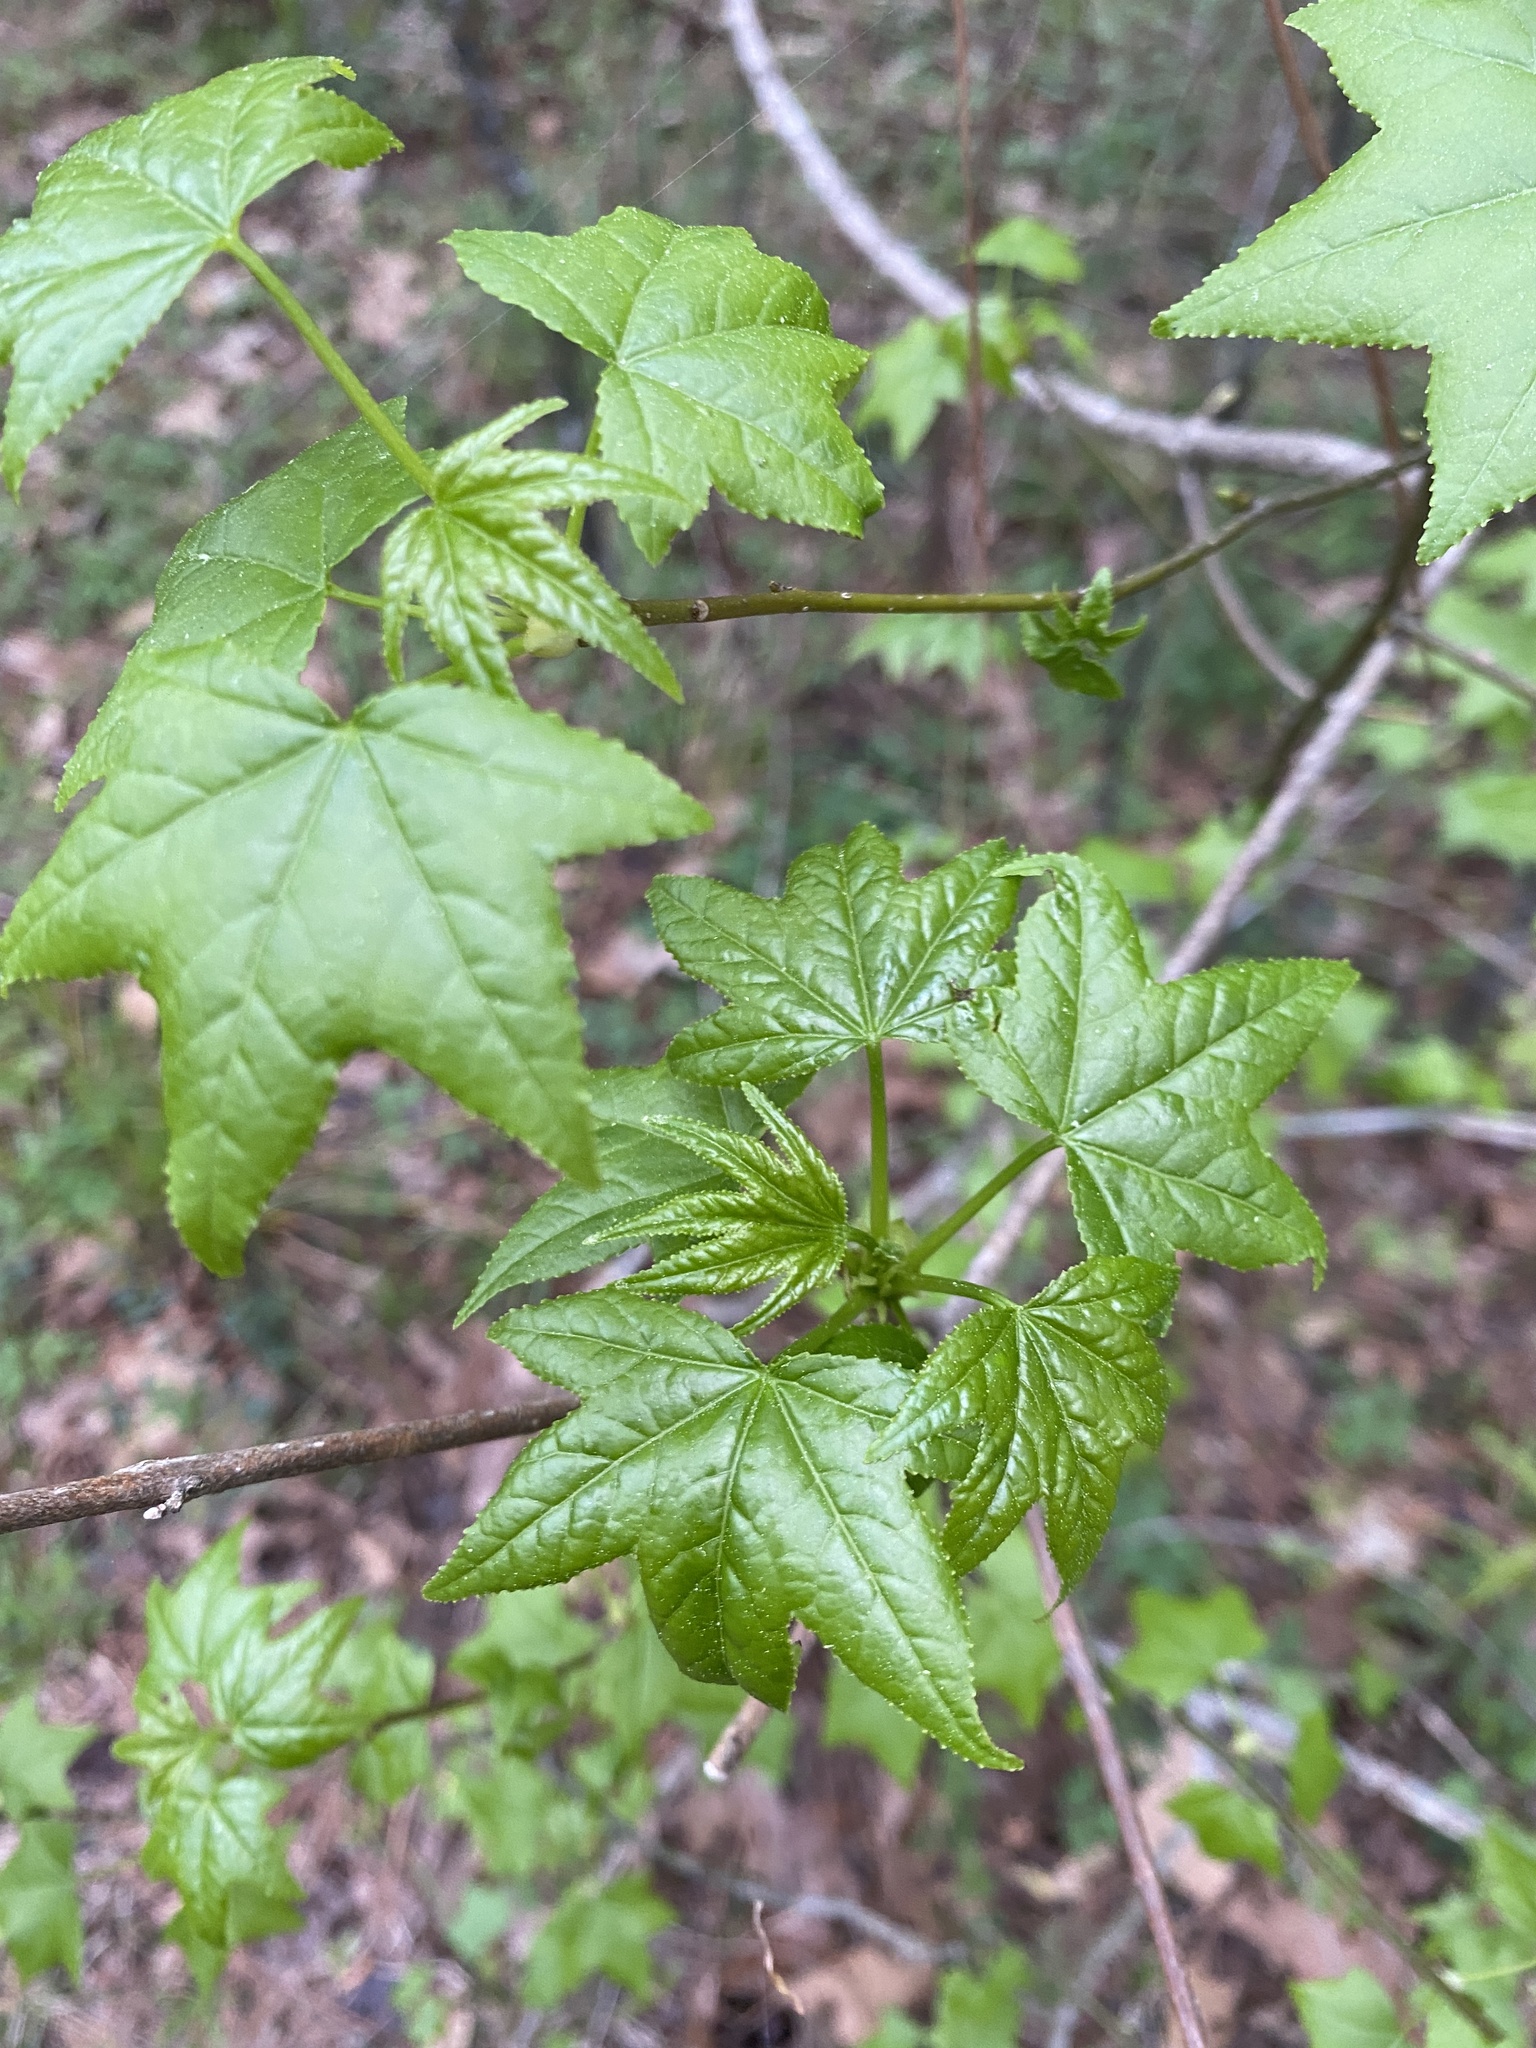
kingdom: Plantae
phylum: Tracheophyta
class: Magnoliopsida
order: Saxifragales
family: Altingiaceae
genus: Liquidambar
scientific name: Liquidambar styraciflua
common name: Sweet gum
